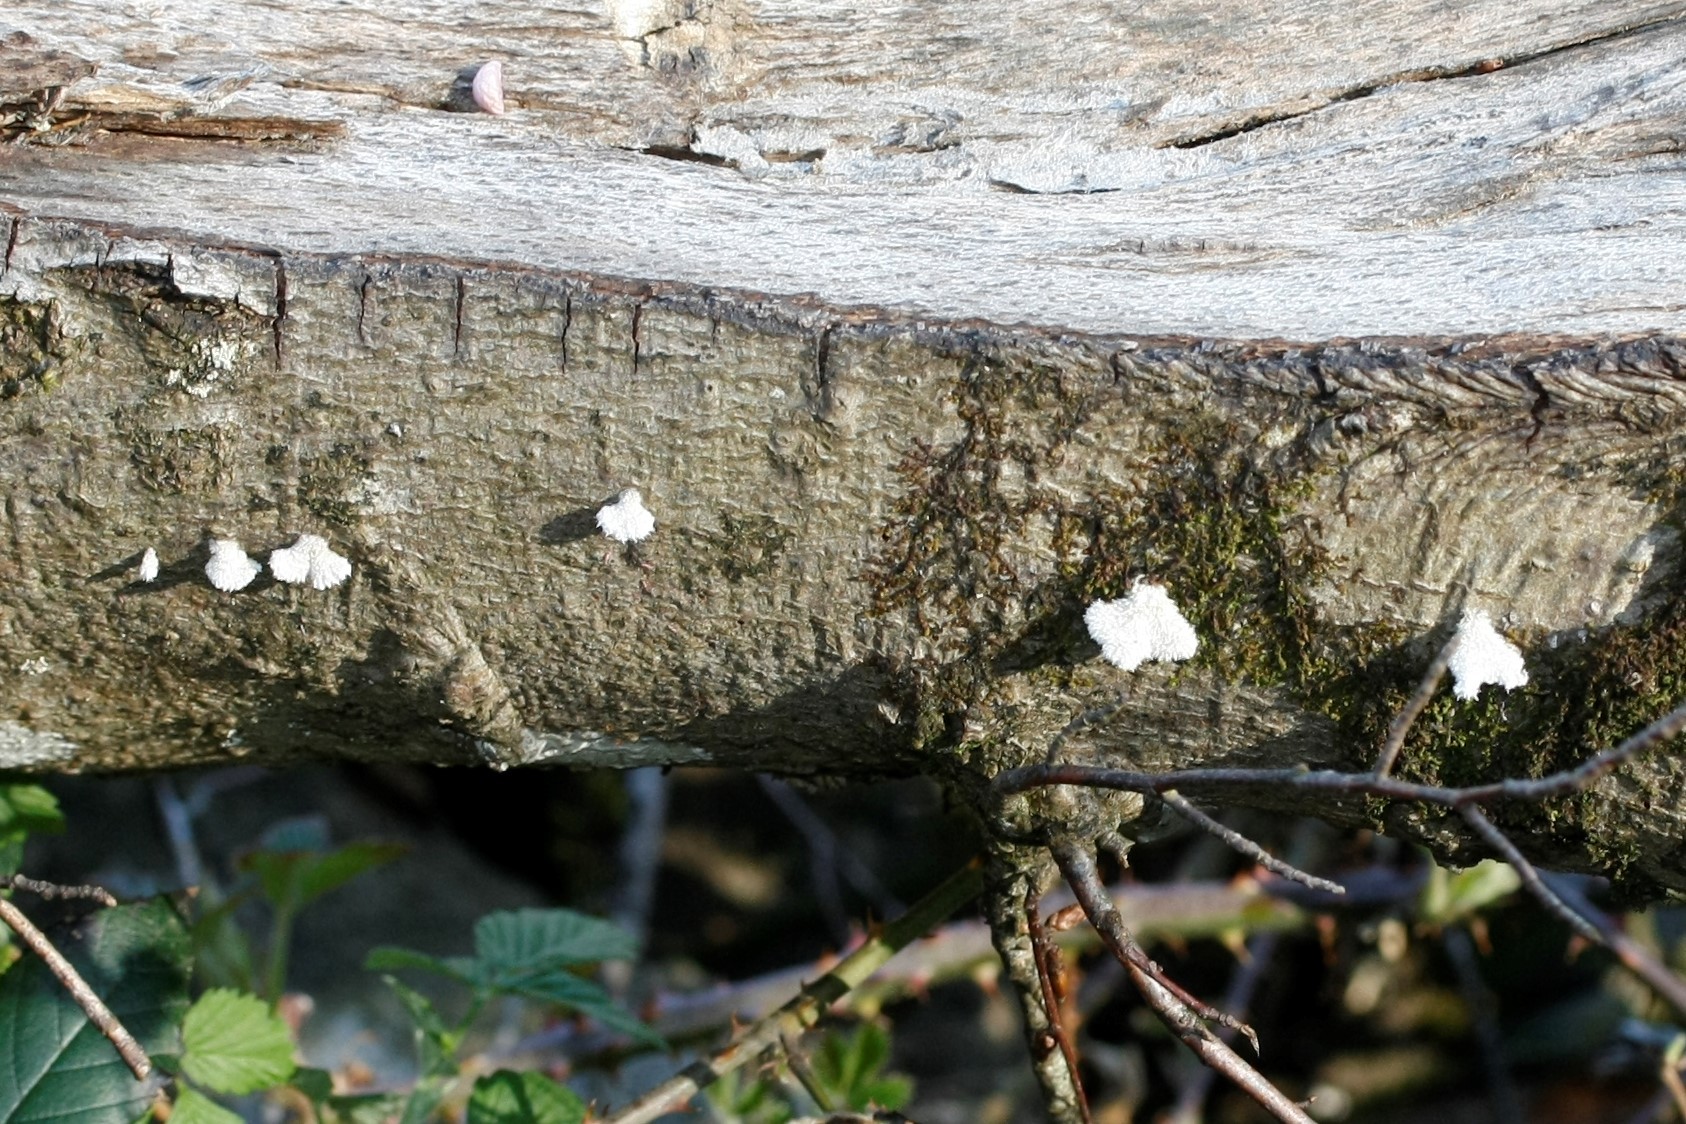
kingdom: Fungi
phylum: Basidiomycota
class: Agaricomycetes
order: Agaricales
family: Schizophyllaceae
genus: Schizophyllum
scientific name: Schizophyllum commune
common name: Common porecrust
